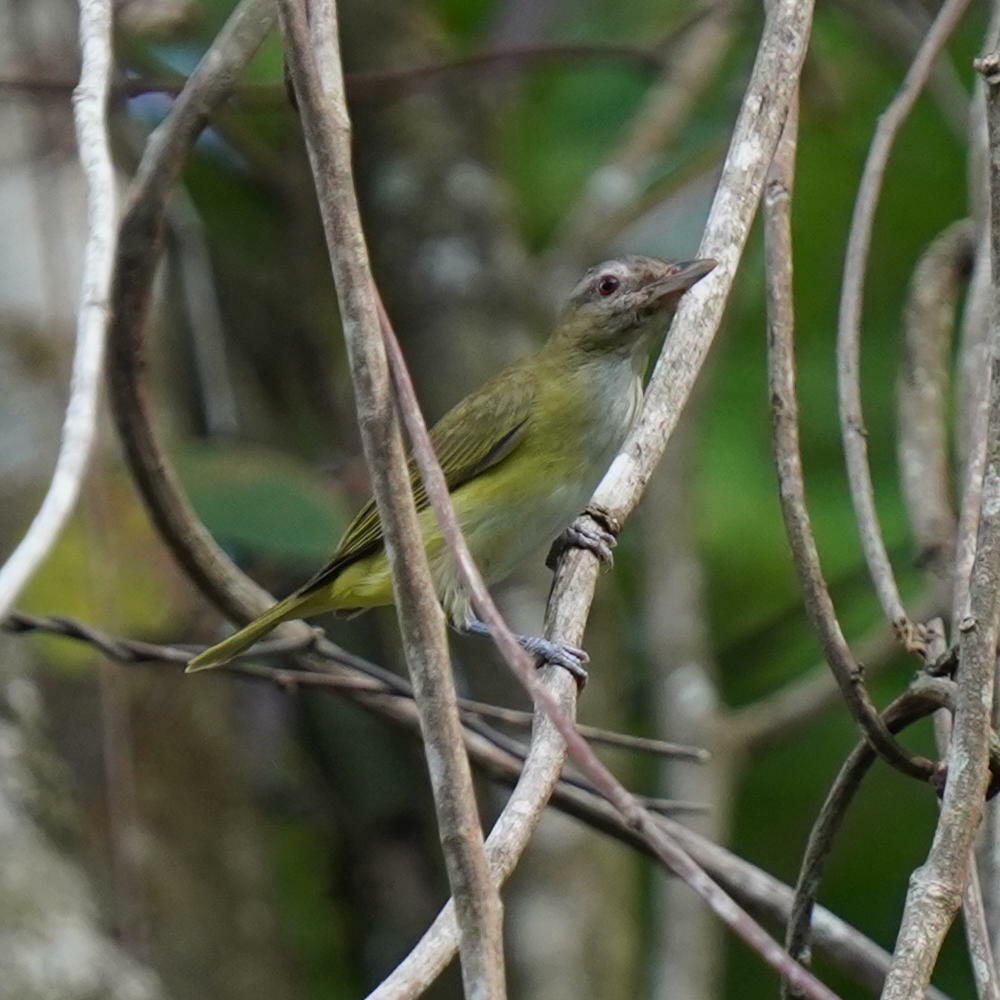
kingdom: Animalia
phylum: Chordata
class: Aves
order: Passeriformes
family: Vireonidae
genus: Vireo
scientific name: Vireo flavoviridis
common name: Yellow-green vireo
